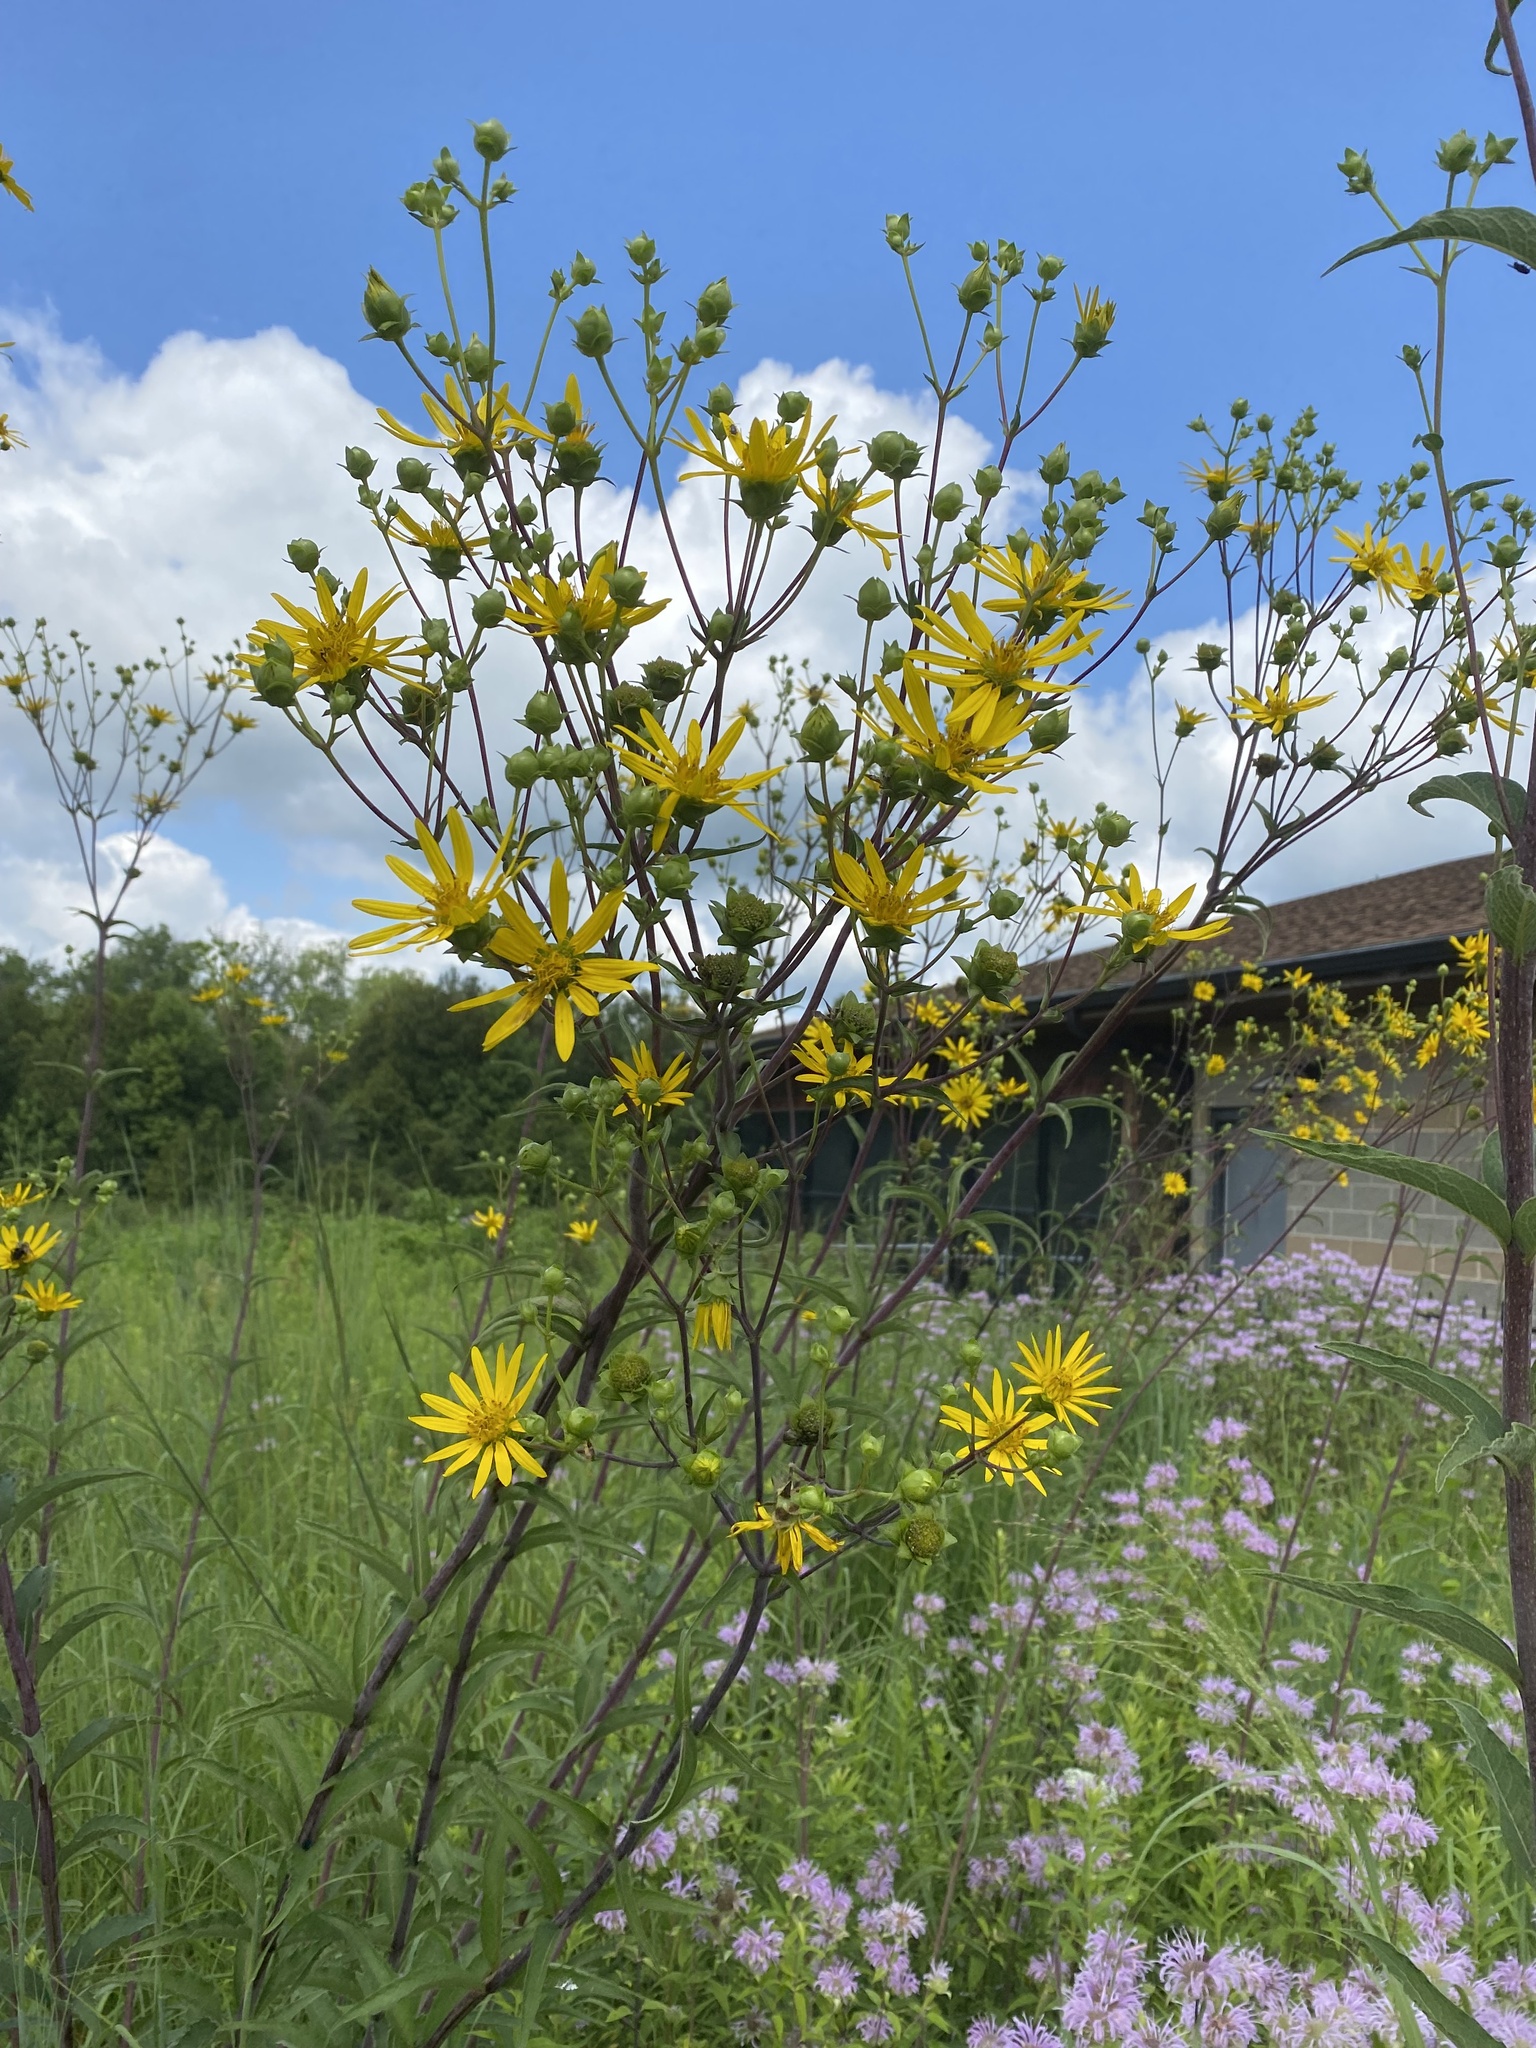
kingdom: Plantae
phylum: Tracheophyta
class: Magnoliopsida
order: Asterales
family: Asteraceae
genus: Silphium
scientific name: Silphium asteriscus
